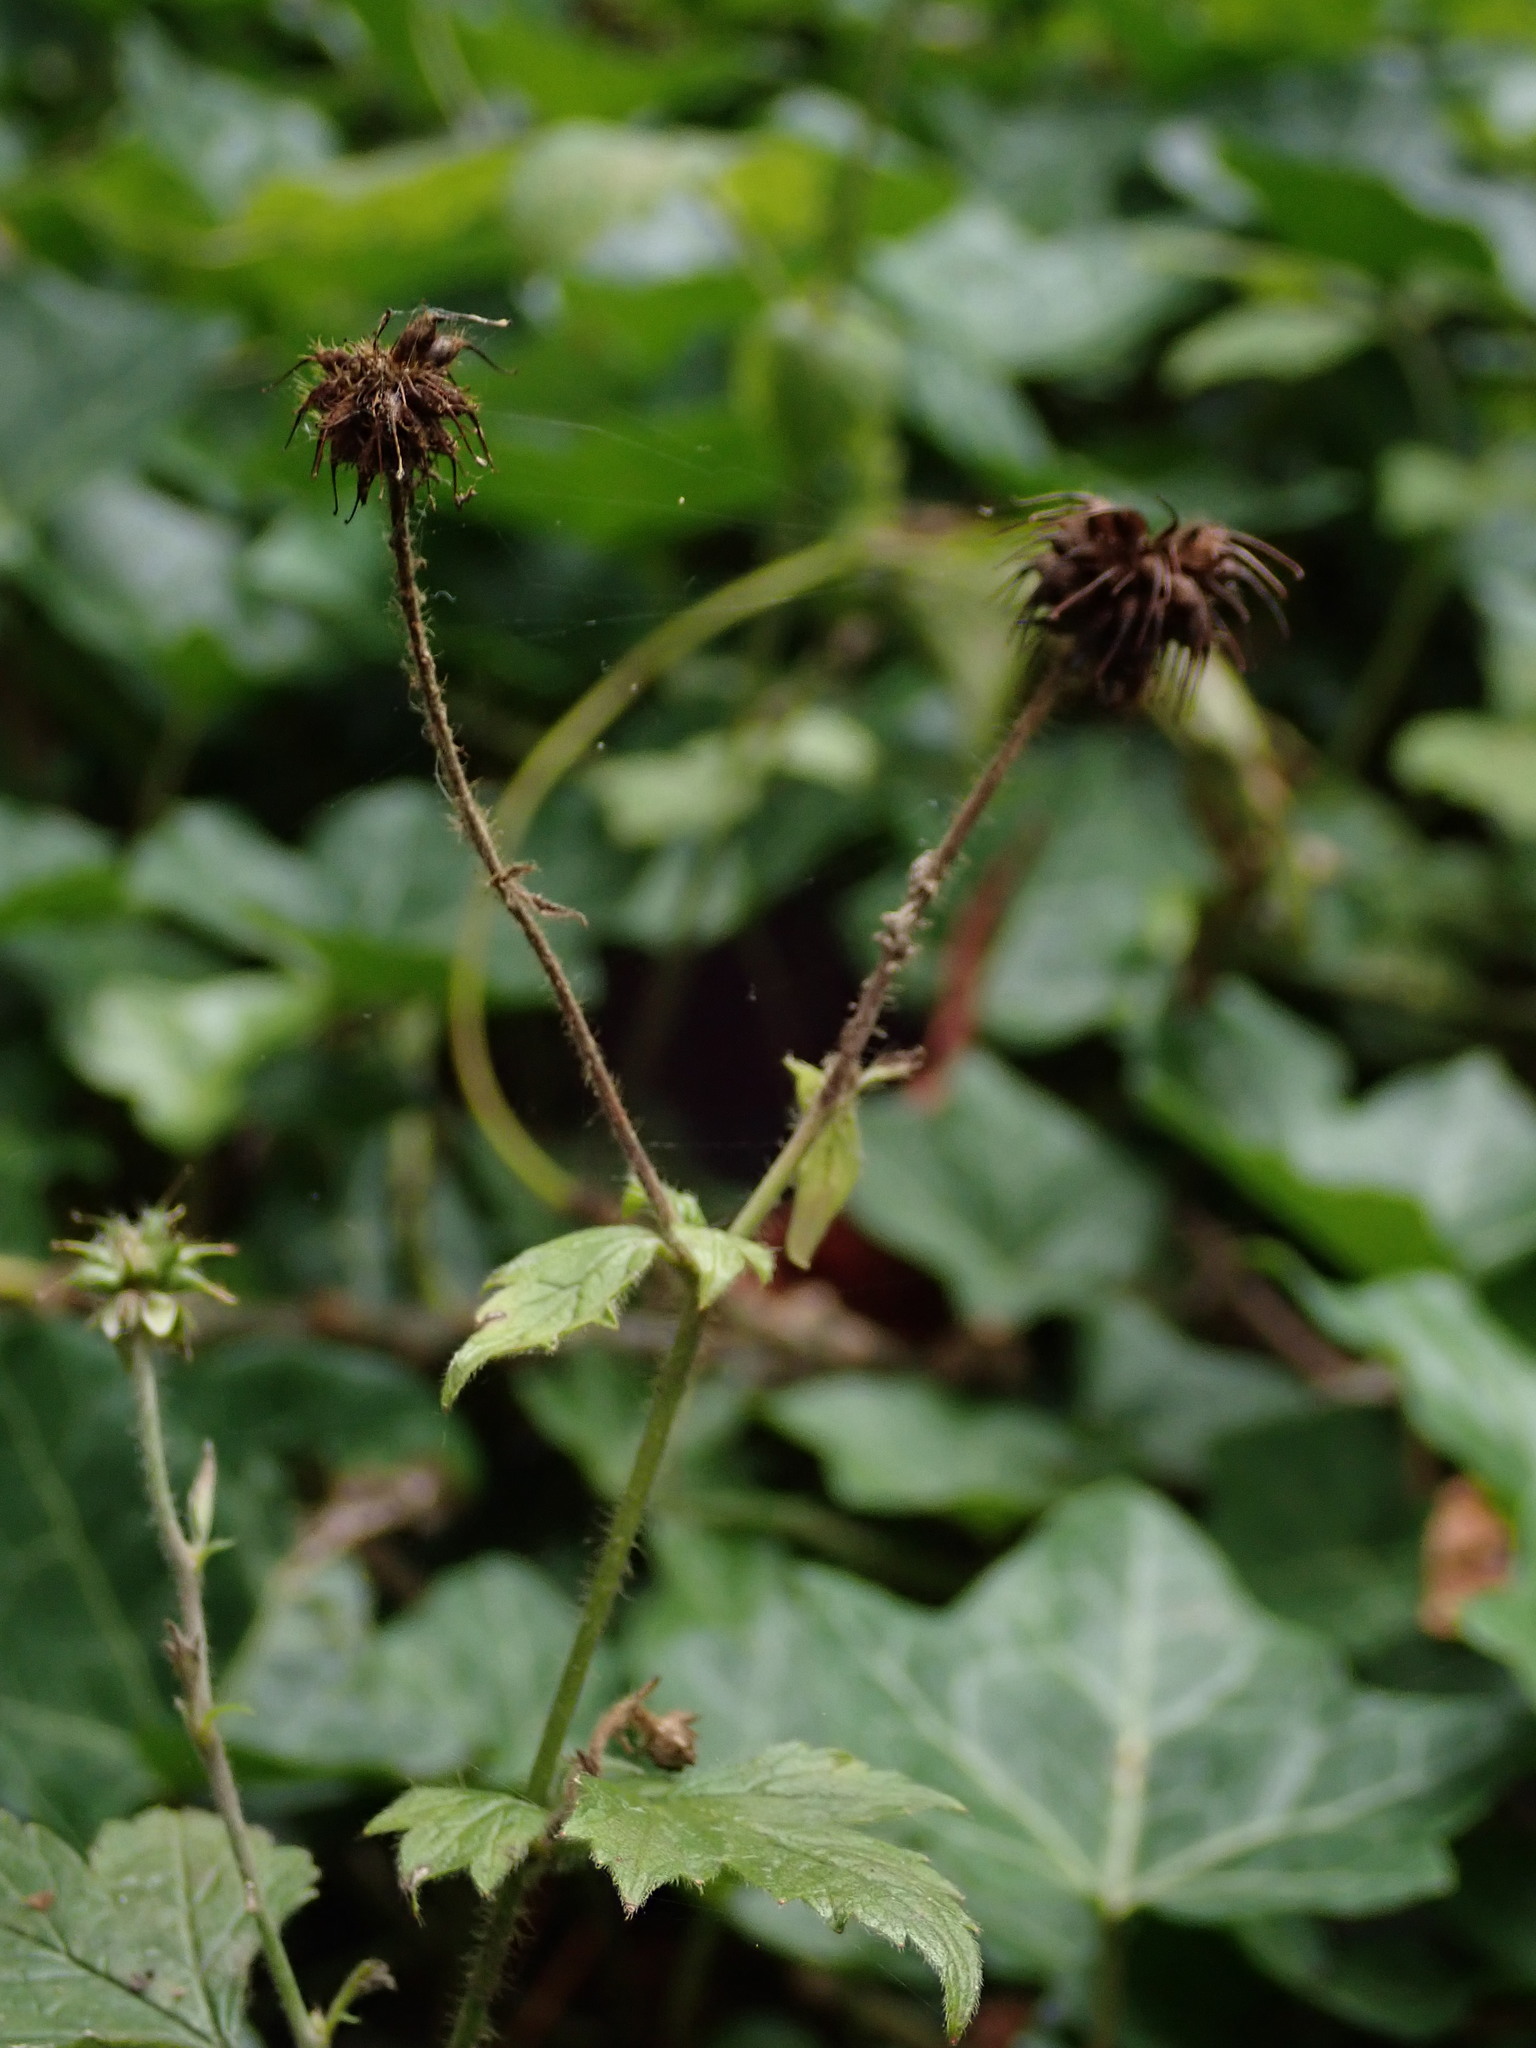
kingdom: Plantae
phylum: Tracheophyta
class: Magnoliopsida
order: Rosales
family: Rosaceae
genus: Geum
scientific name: Geum urbanum
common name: Wood avens
